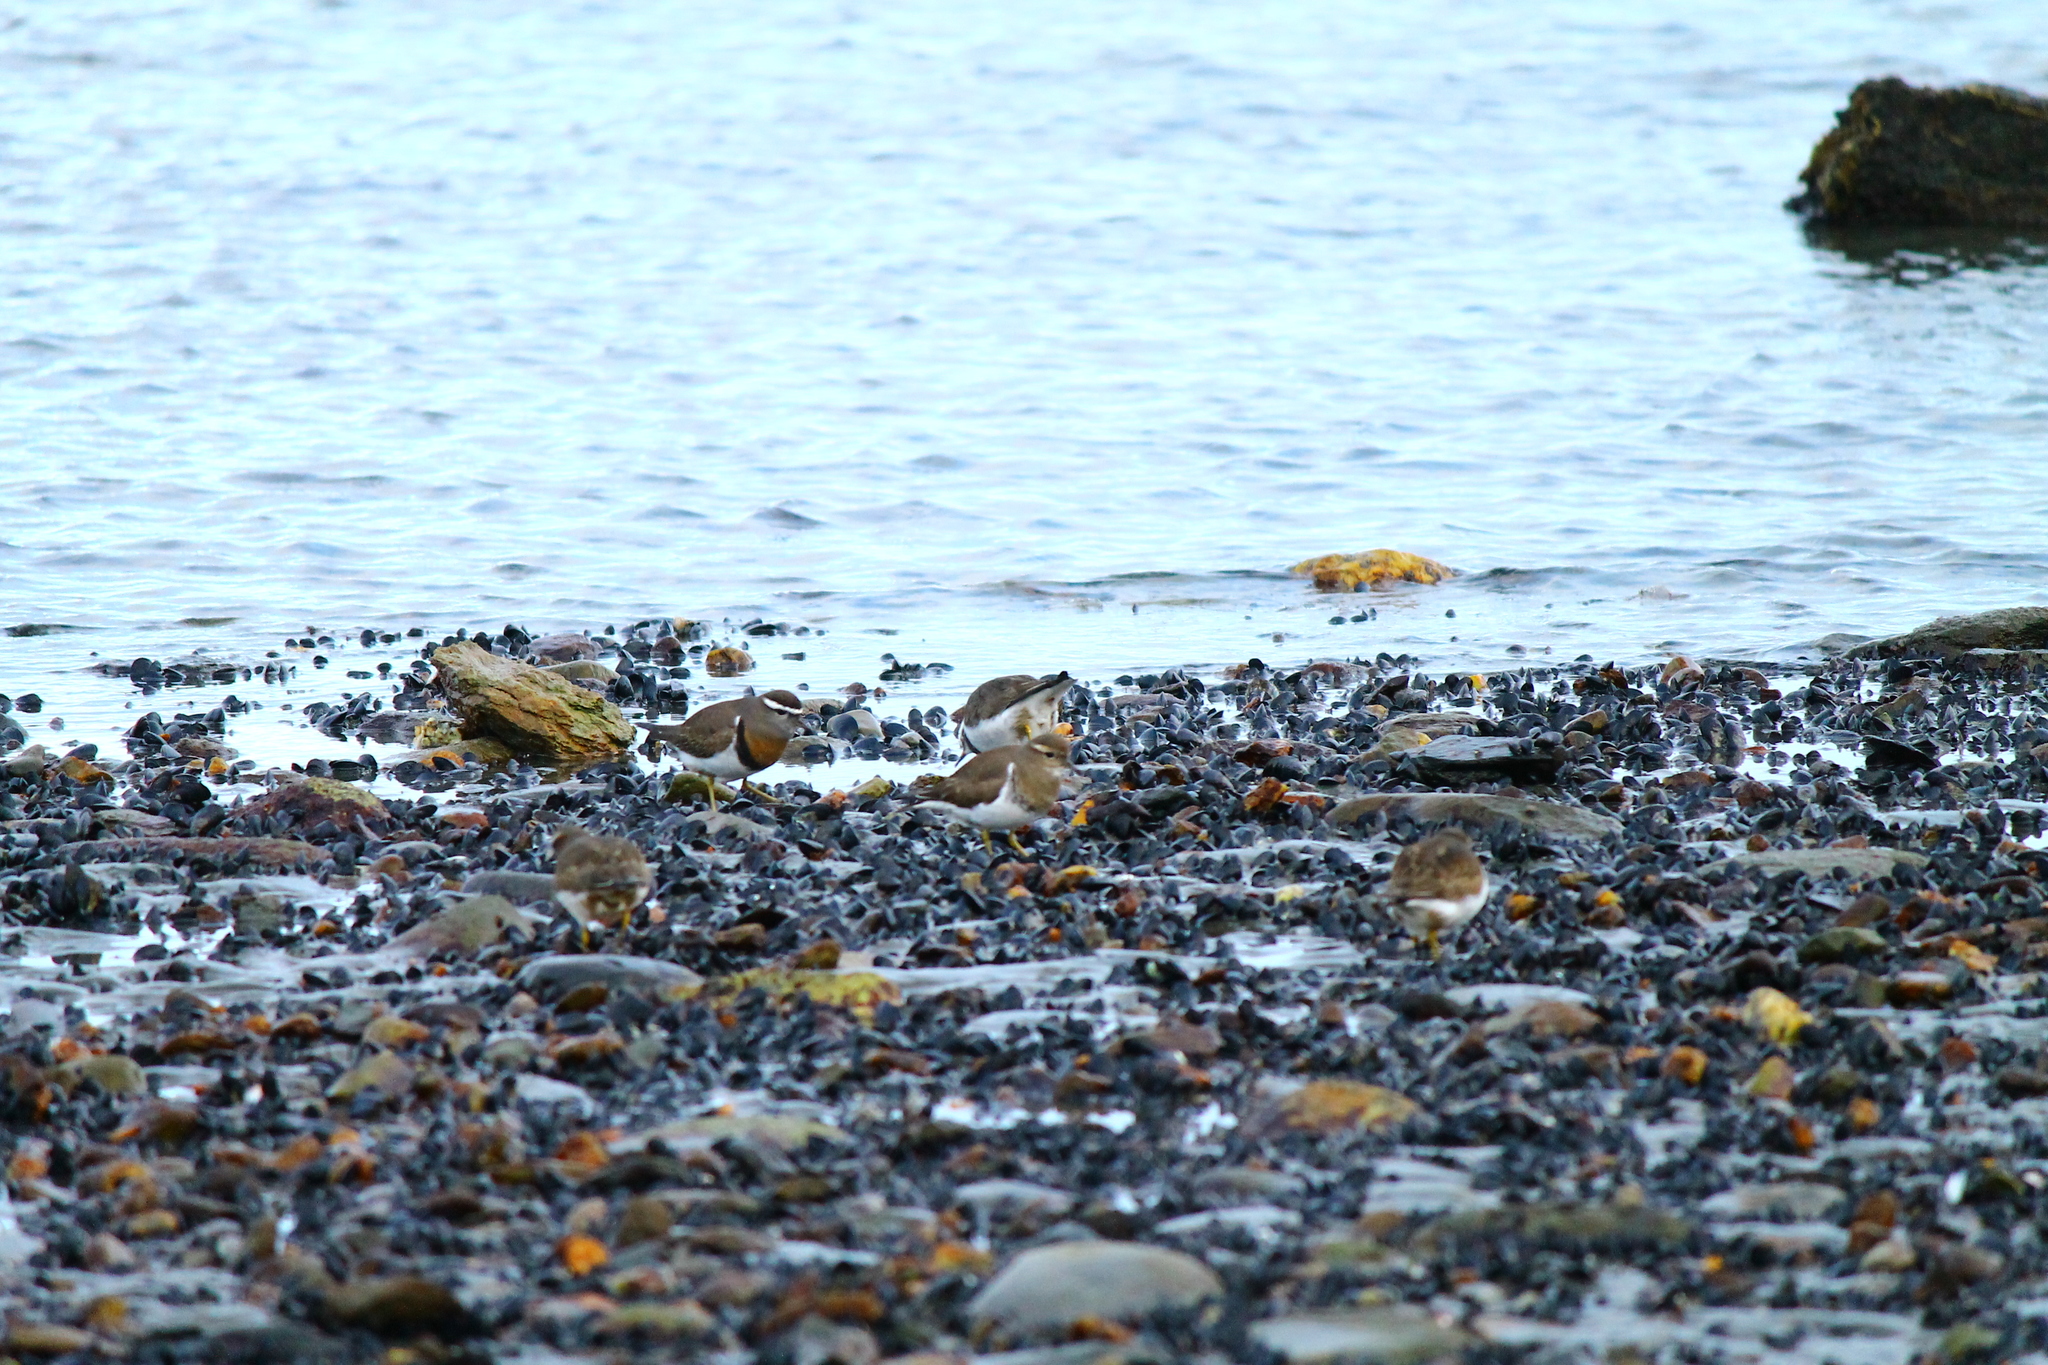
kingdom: Animalia
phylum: Chordata
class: Aves
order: Charadriiformes
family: Charadriidae
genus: Charadrius
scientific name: Charadrius modestus
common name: Rufous-chested plover
